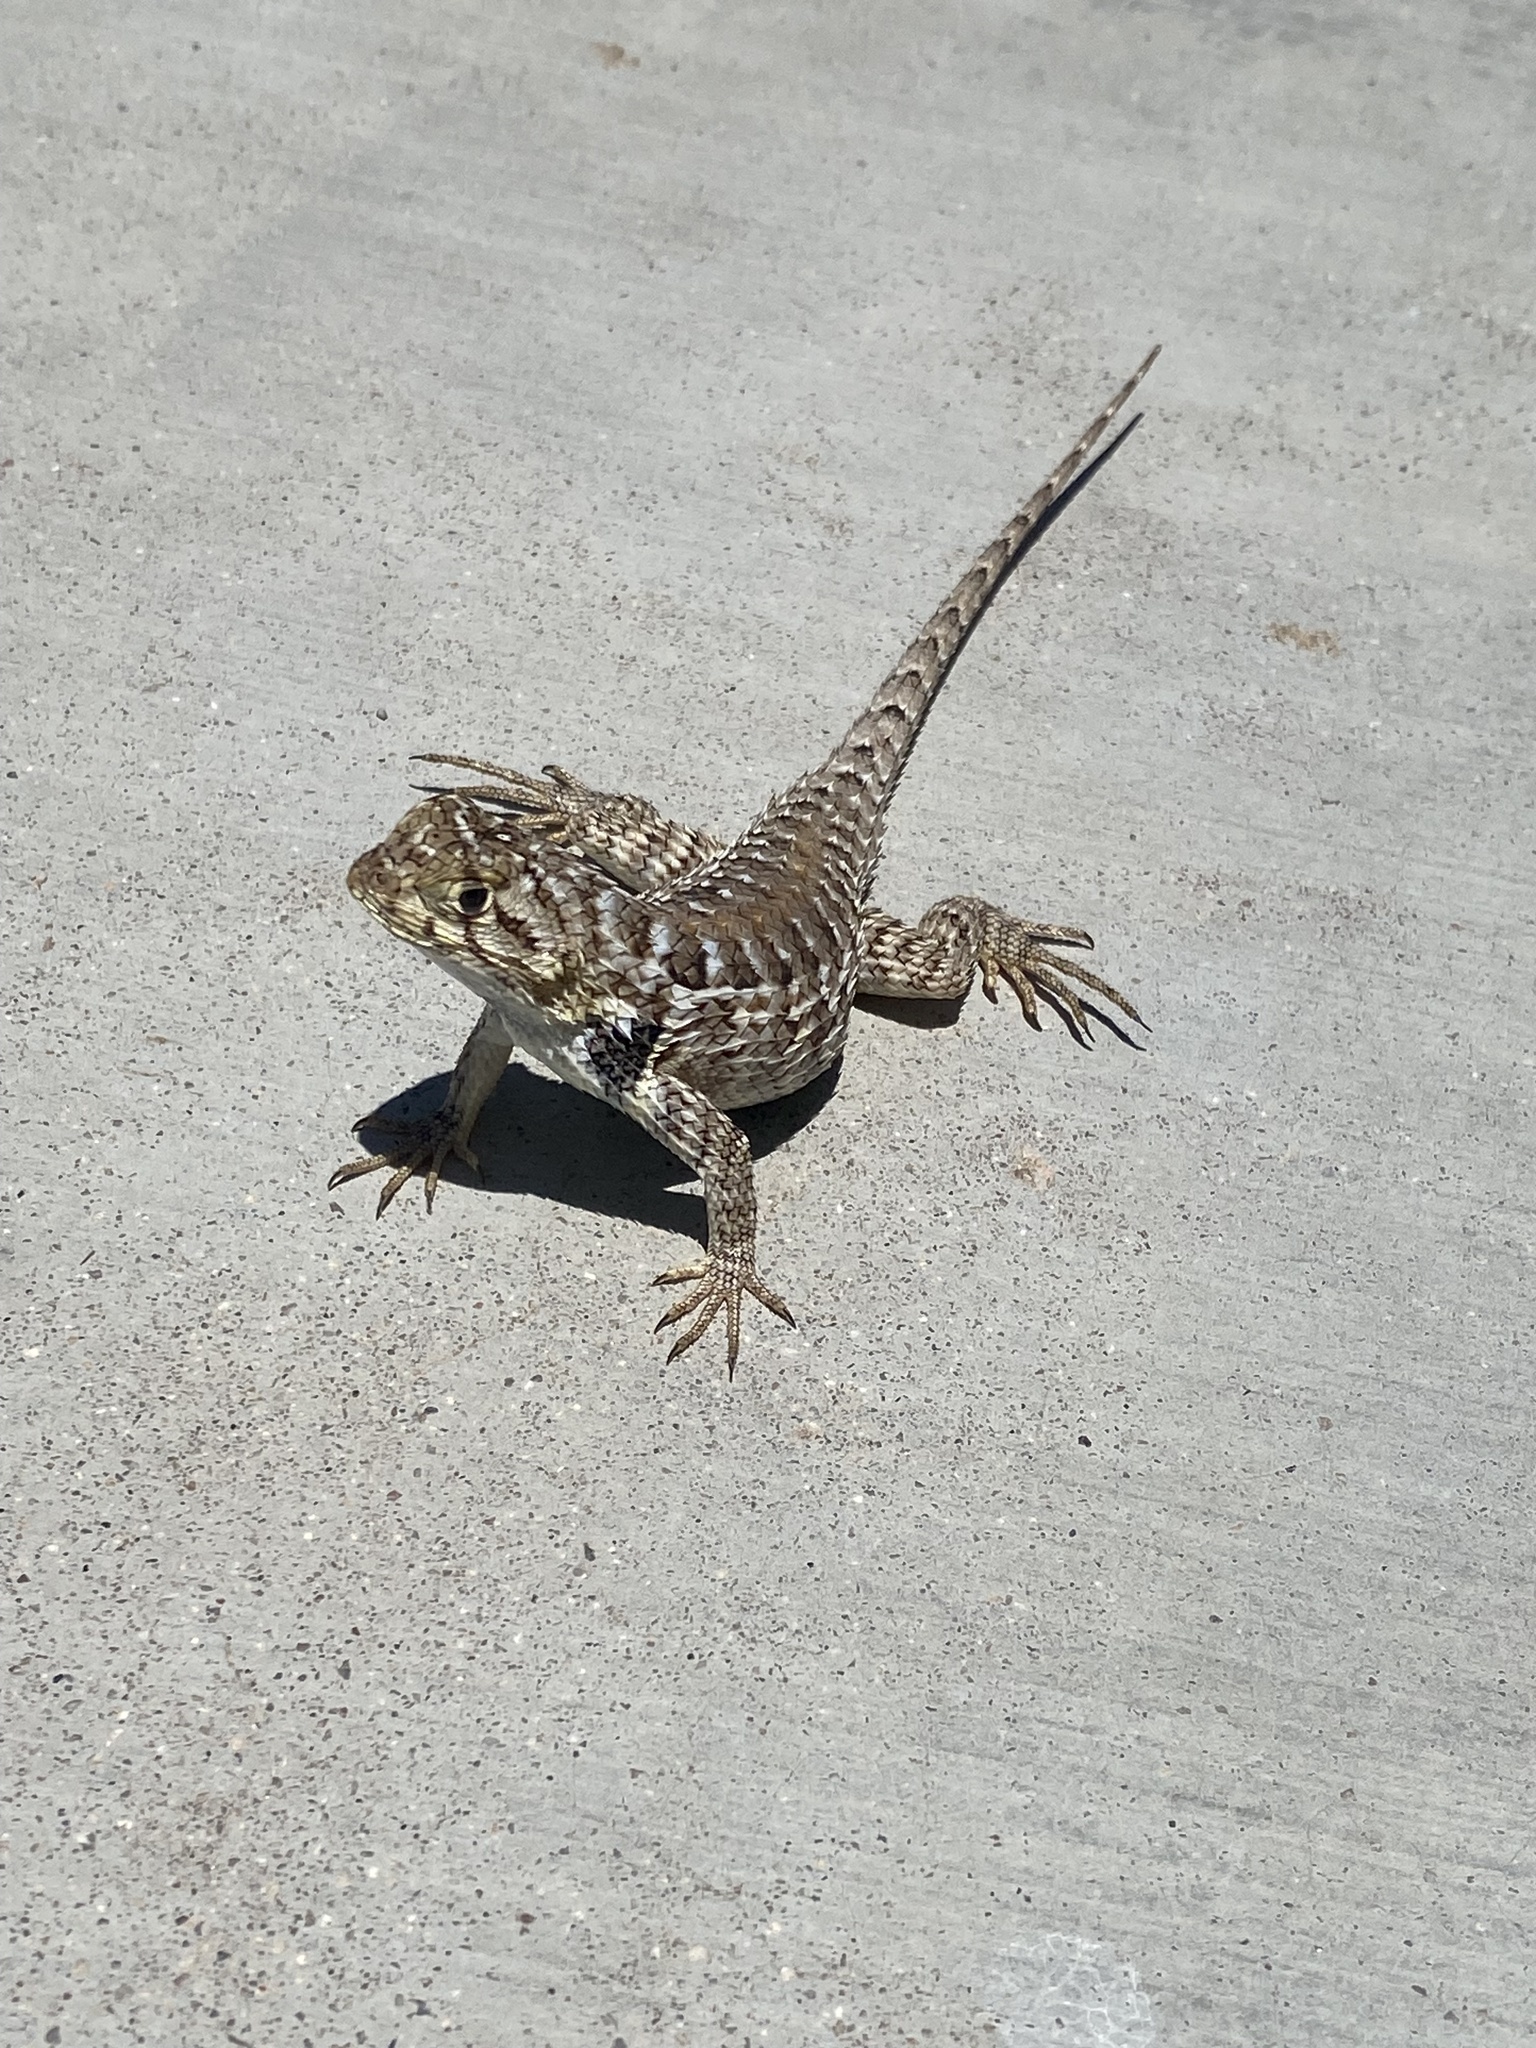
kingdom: Animalia
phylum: Chordata
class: Squamata
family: Phrynosomatidae
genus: Sceloporus
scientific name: Sceloporus zosteromus
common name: Baja spiny lizard
